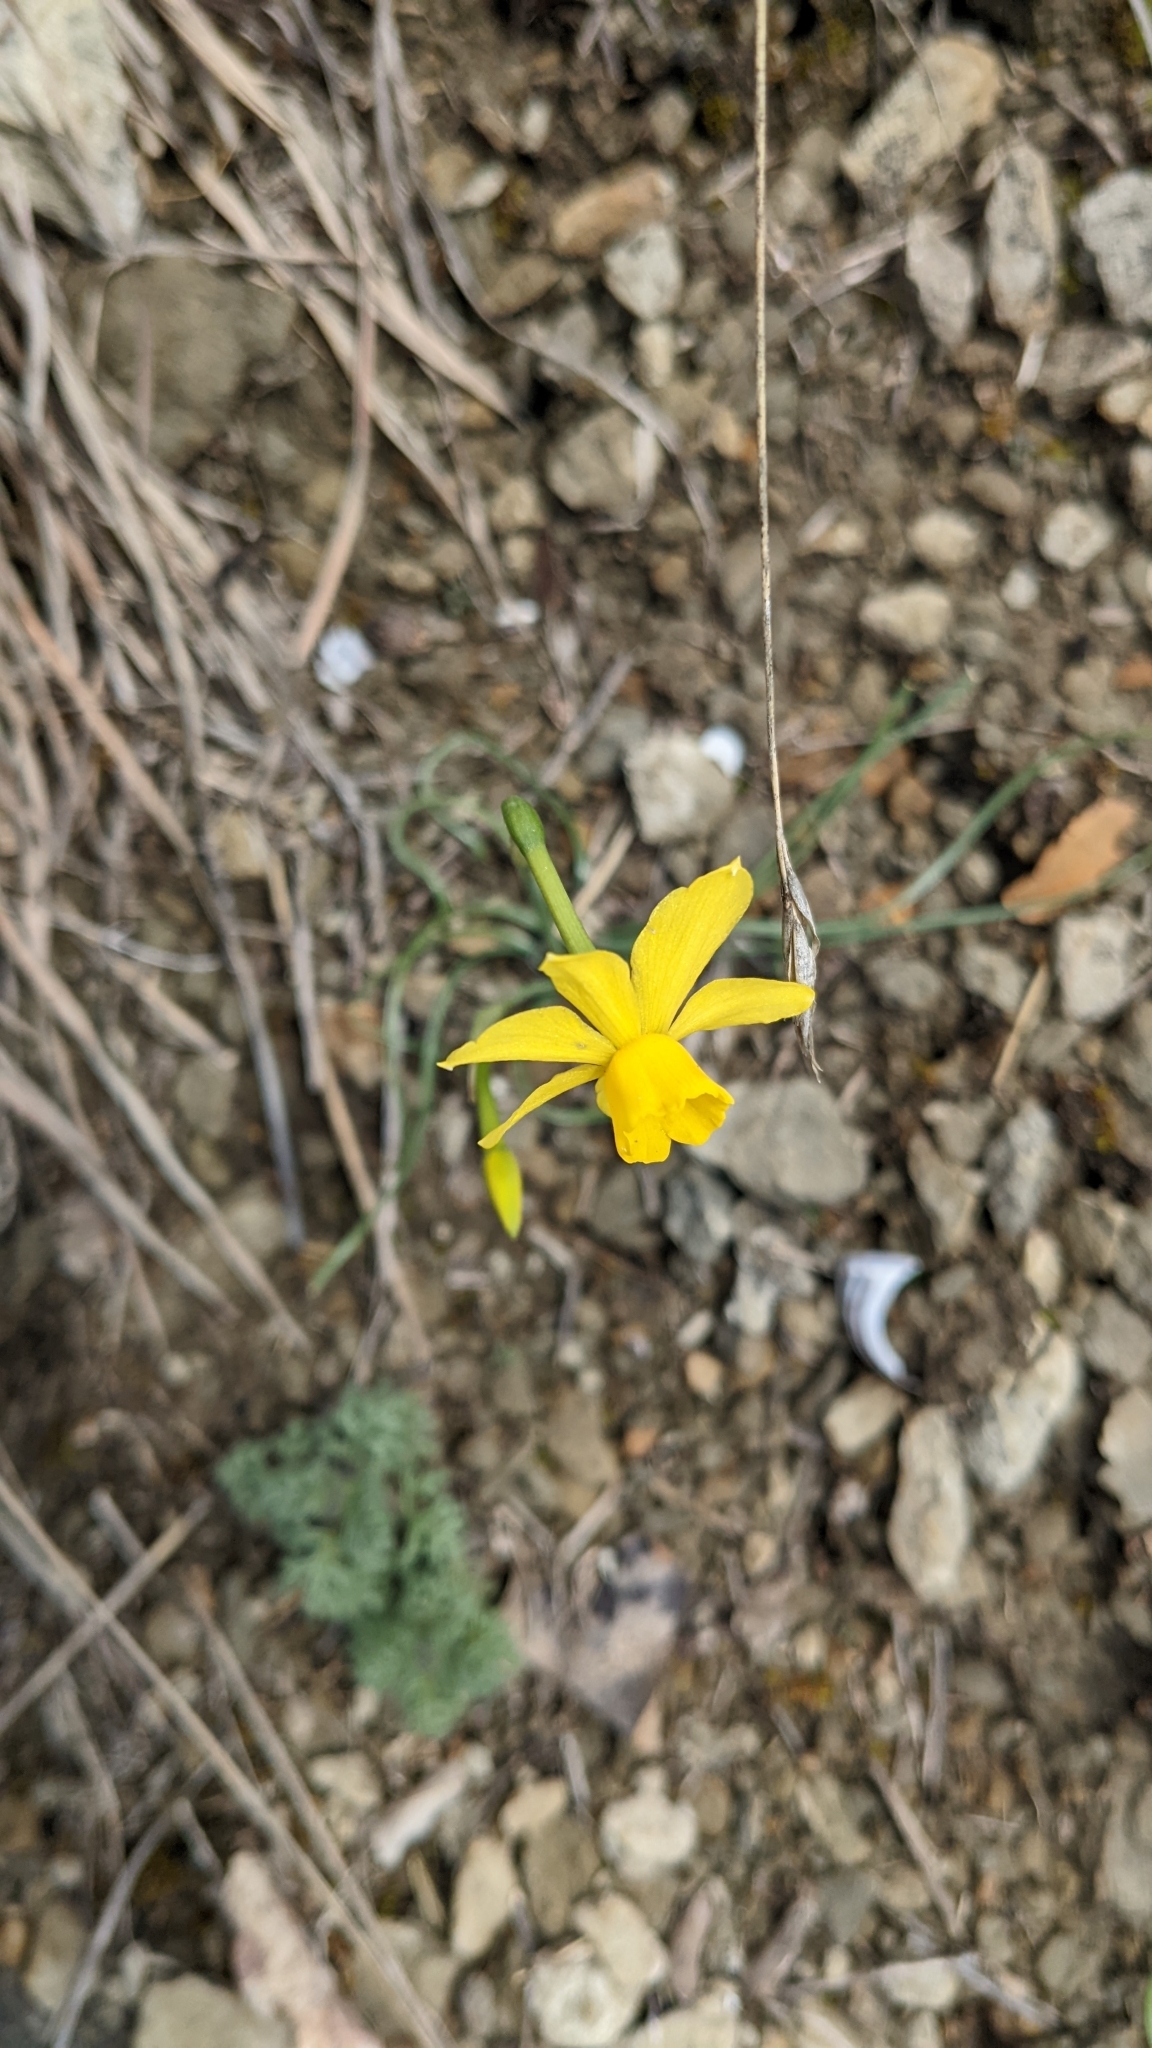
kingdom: Plantae
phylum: Tracheophyta
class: Liliopsida
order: Asparagales
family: Amaryllidaceae
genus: Narcissus
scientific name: Narcissus assoanus
